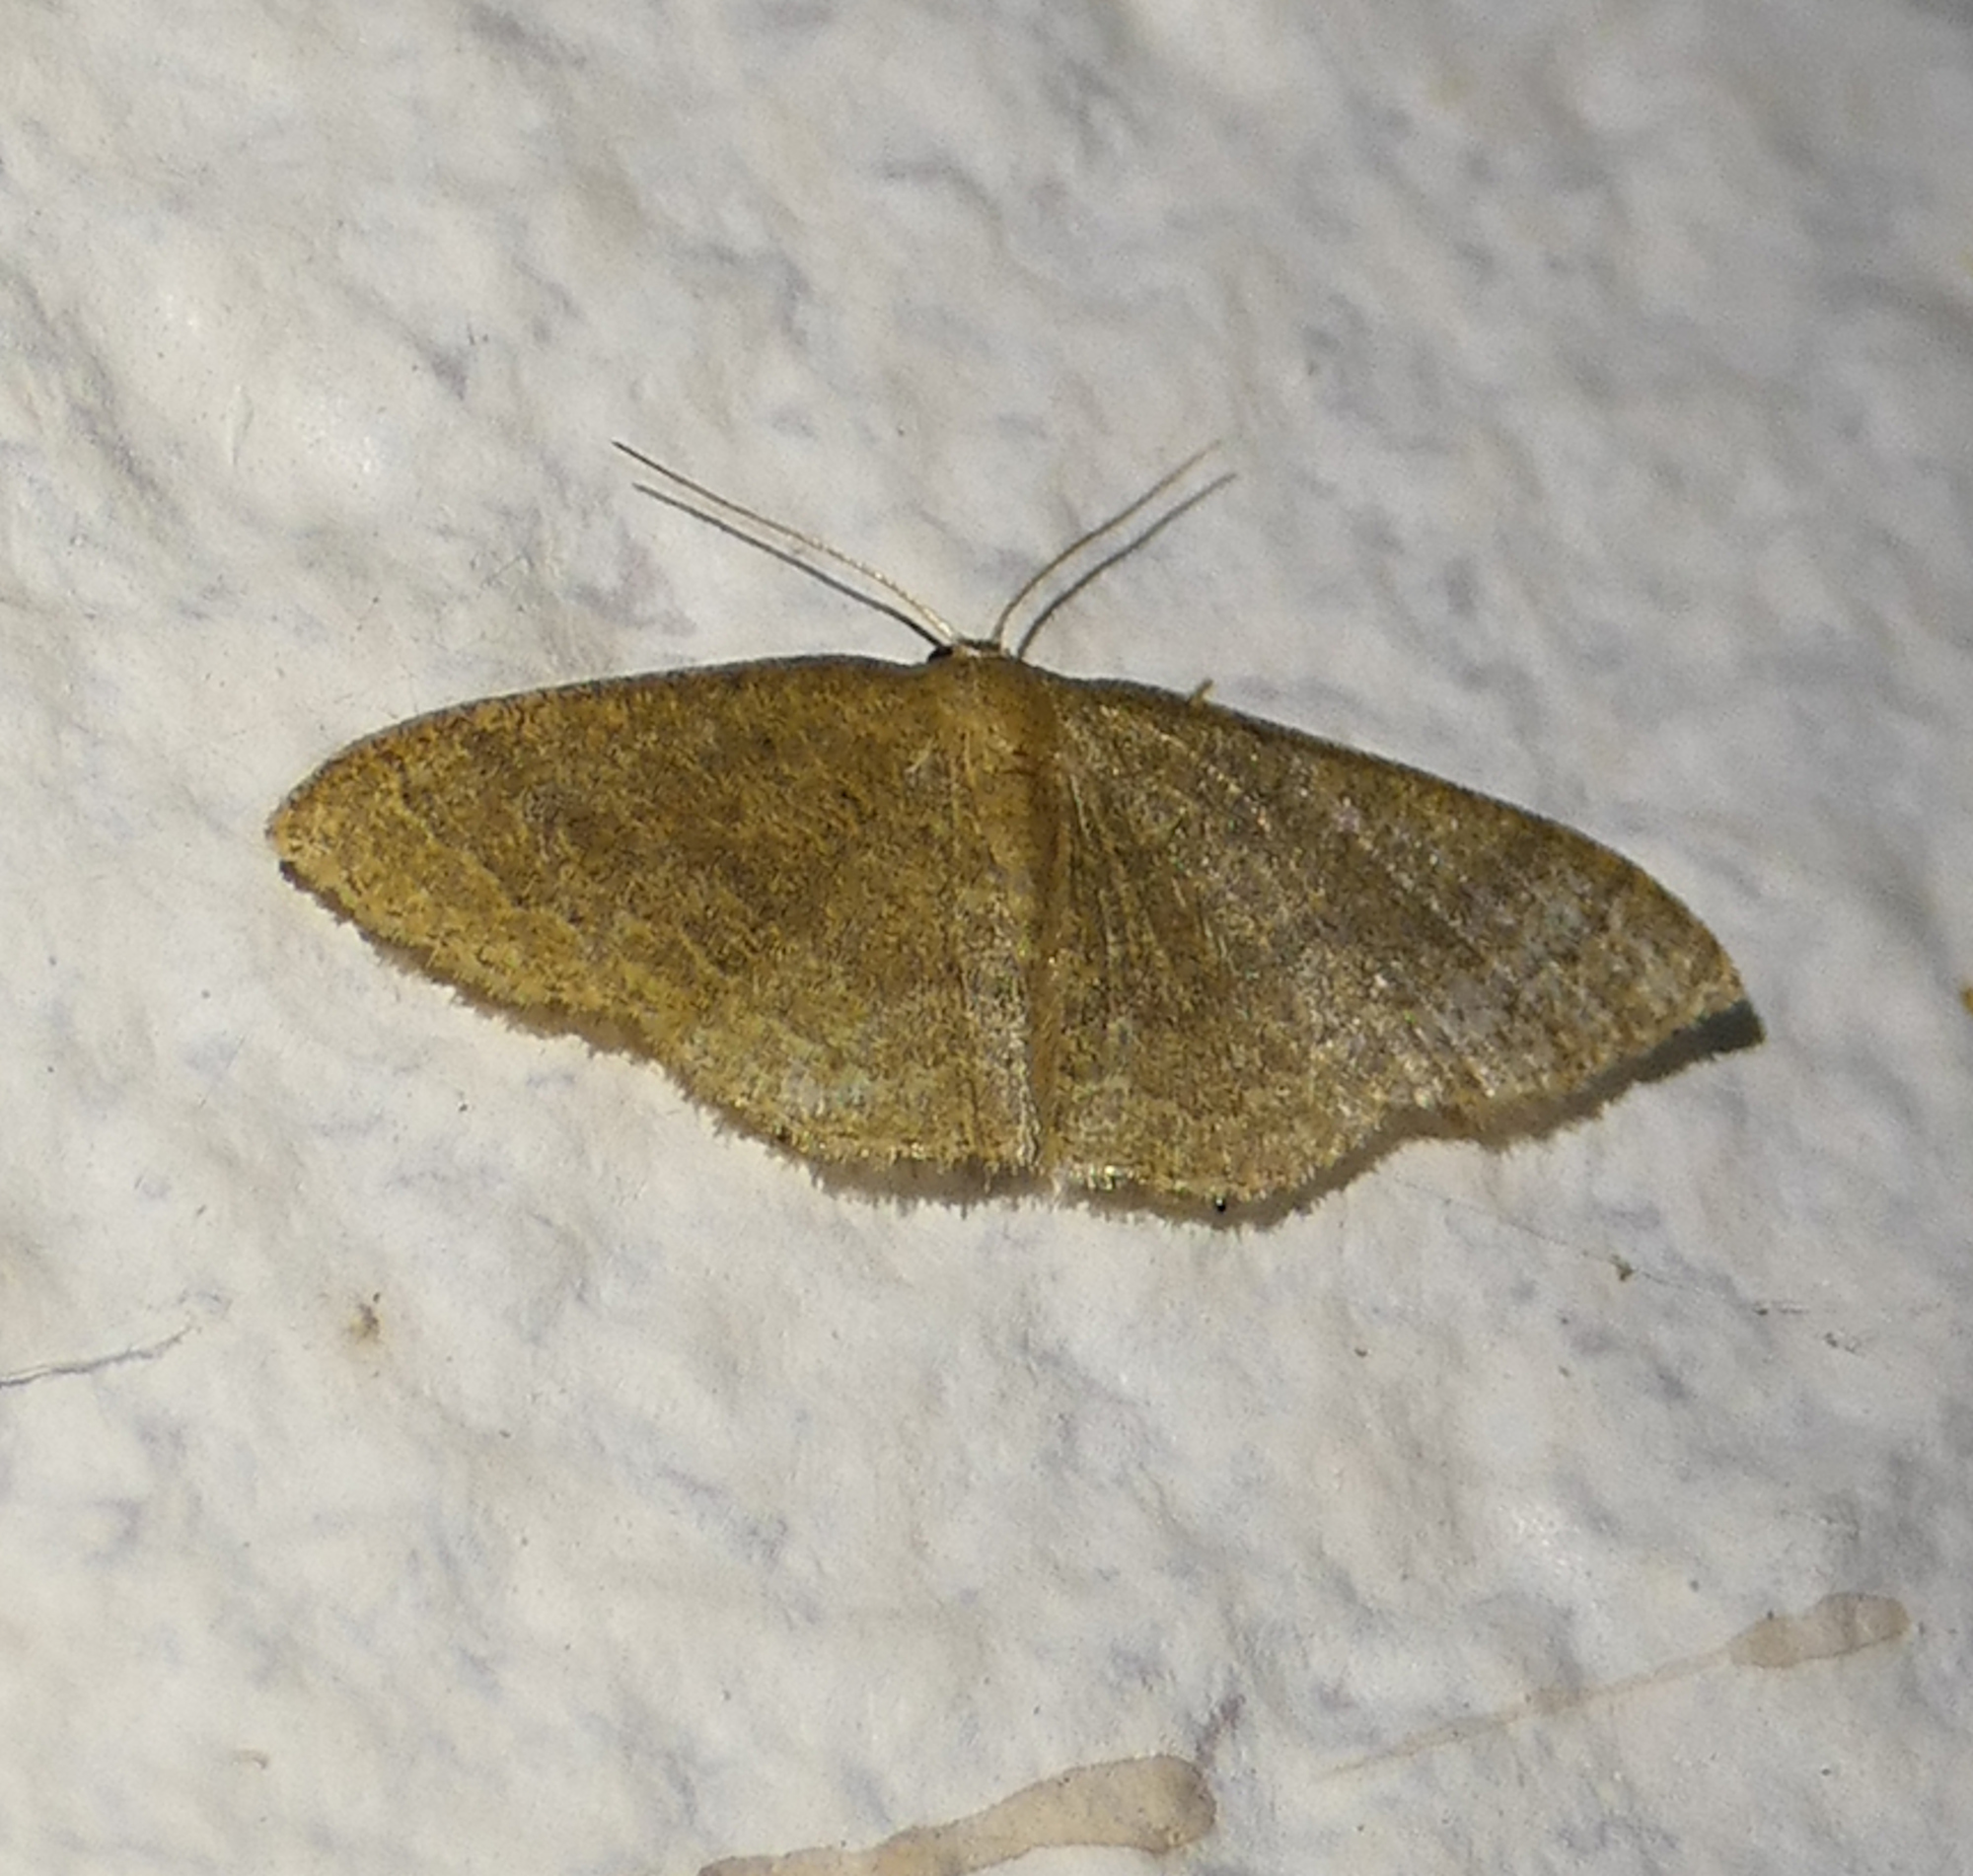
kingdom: Animalia
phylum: Arthropoda
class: Insecta
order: Lepidoptera
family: Geometridae
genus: Pleuroprucha
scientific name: Pleuroprucha insulsaria
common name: Common tan wave
